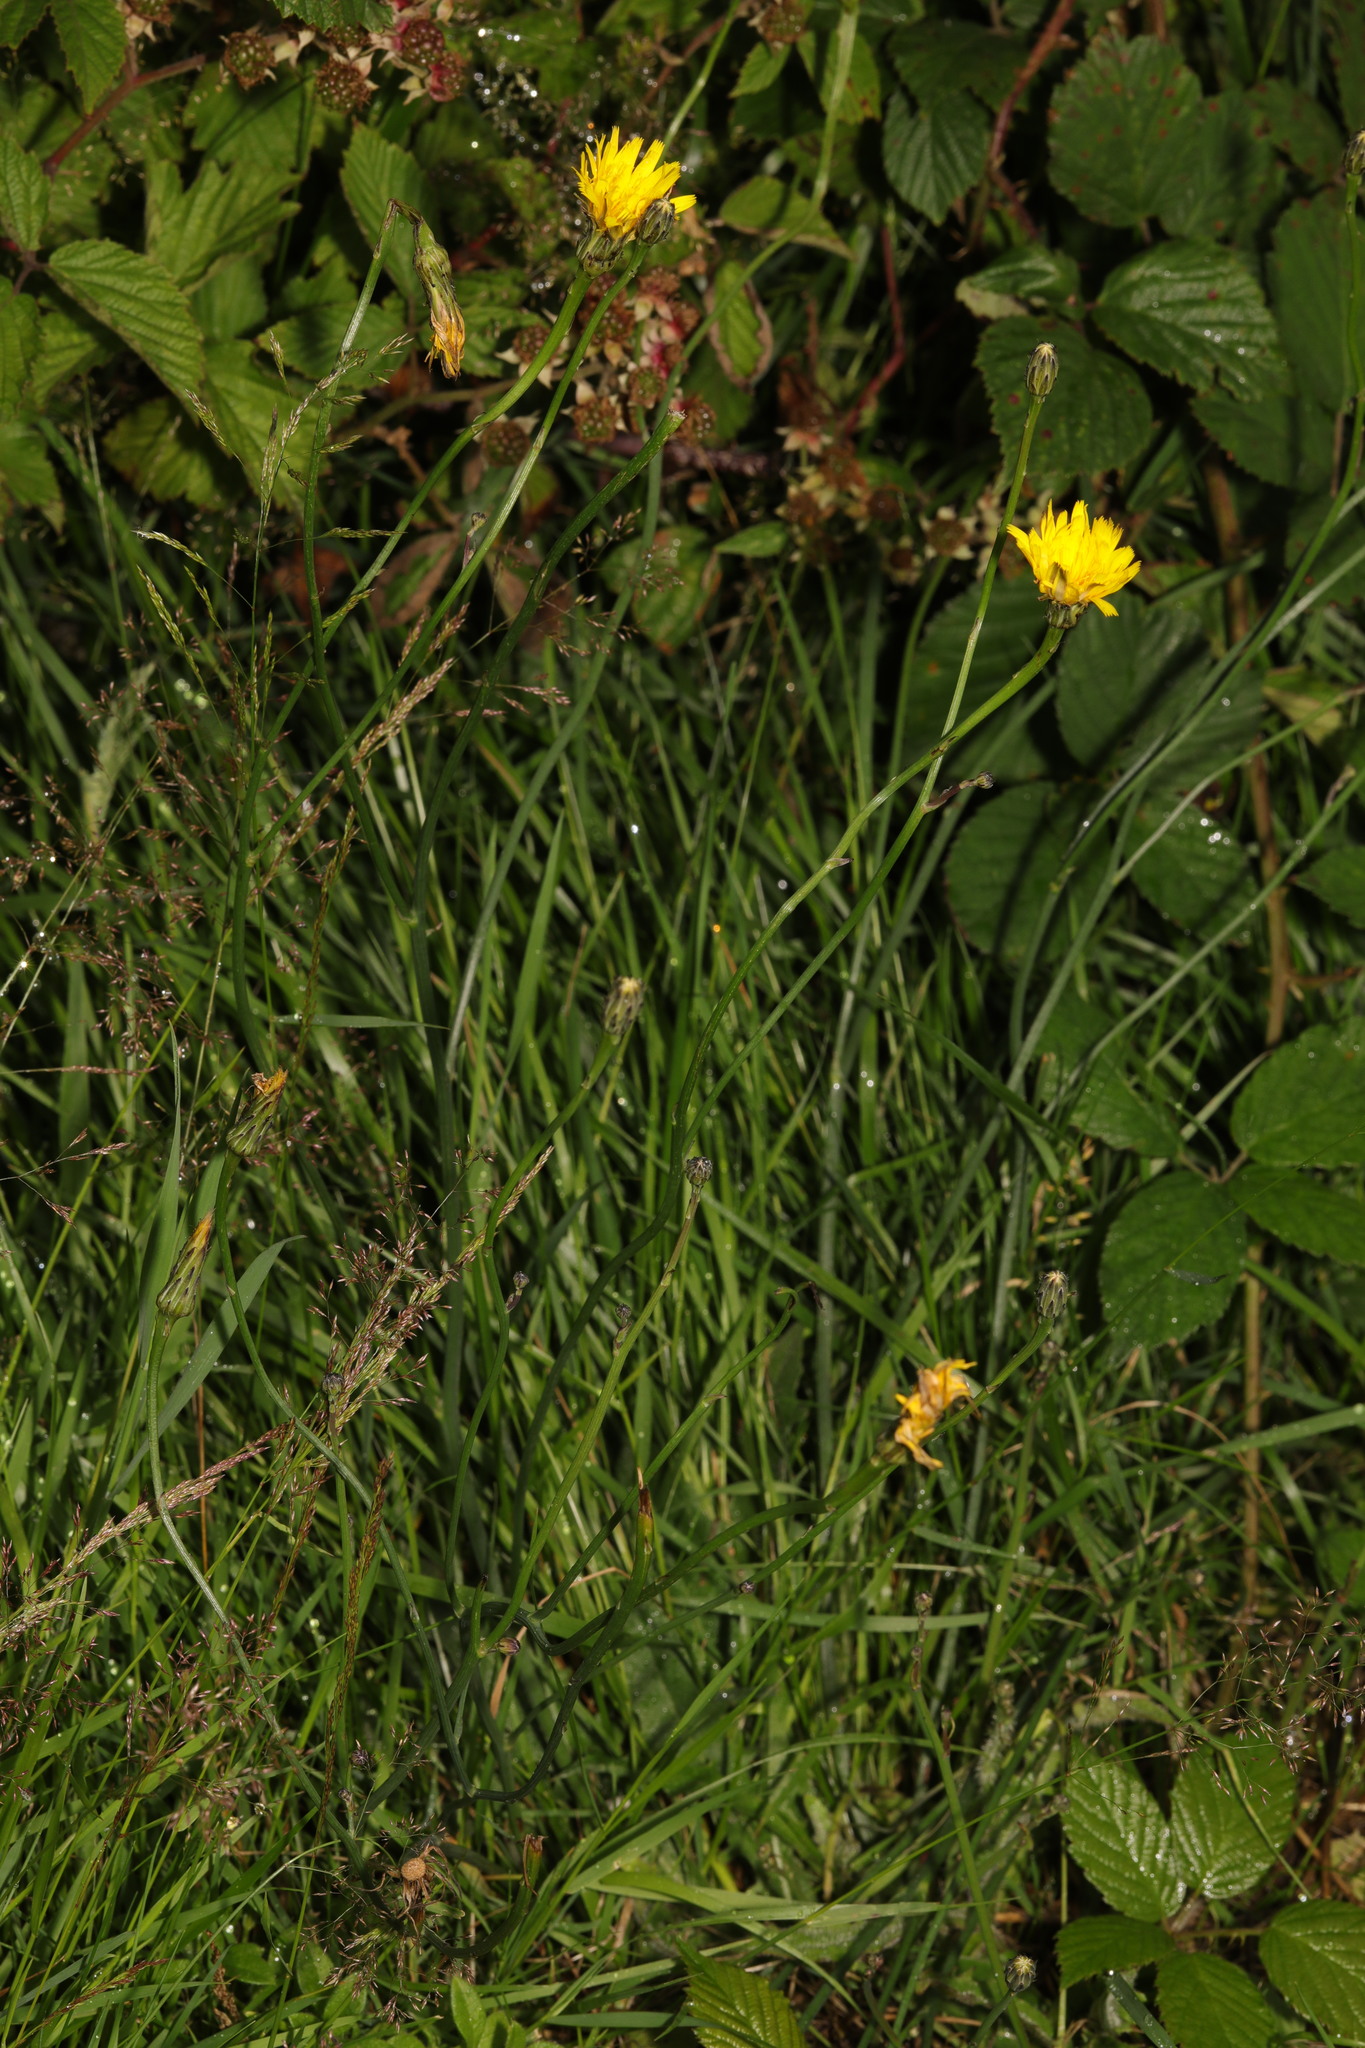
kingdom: Plantae
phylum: Tracheophyta
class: Magnoliopsida
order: Asterales
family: Asteraceae
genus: Scorzoneroides
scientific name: Scorzoneroides autumnalis
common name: Autumn hawkbit
